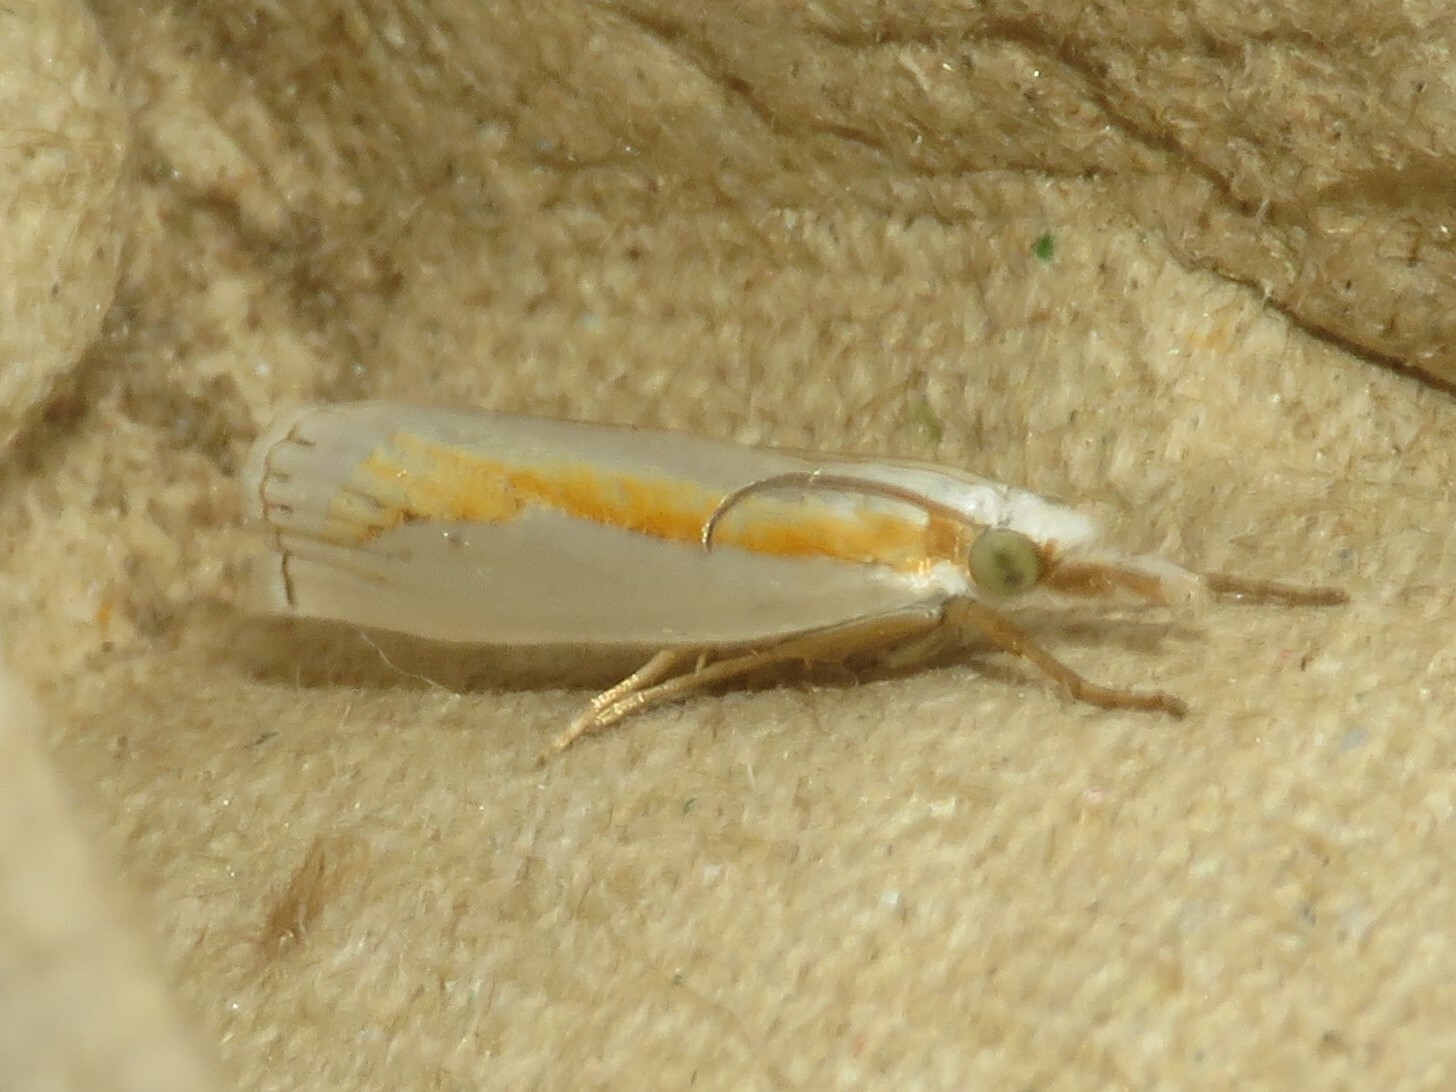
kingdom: Animalia
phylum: Arthropoda
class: Insecta
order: Lepidoptera
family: Crambidae
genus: Crambus
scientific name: Crambus girardellus
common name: Girard's grass-veneer
